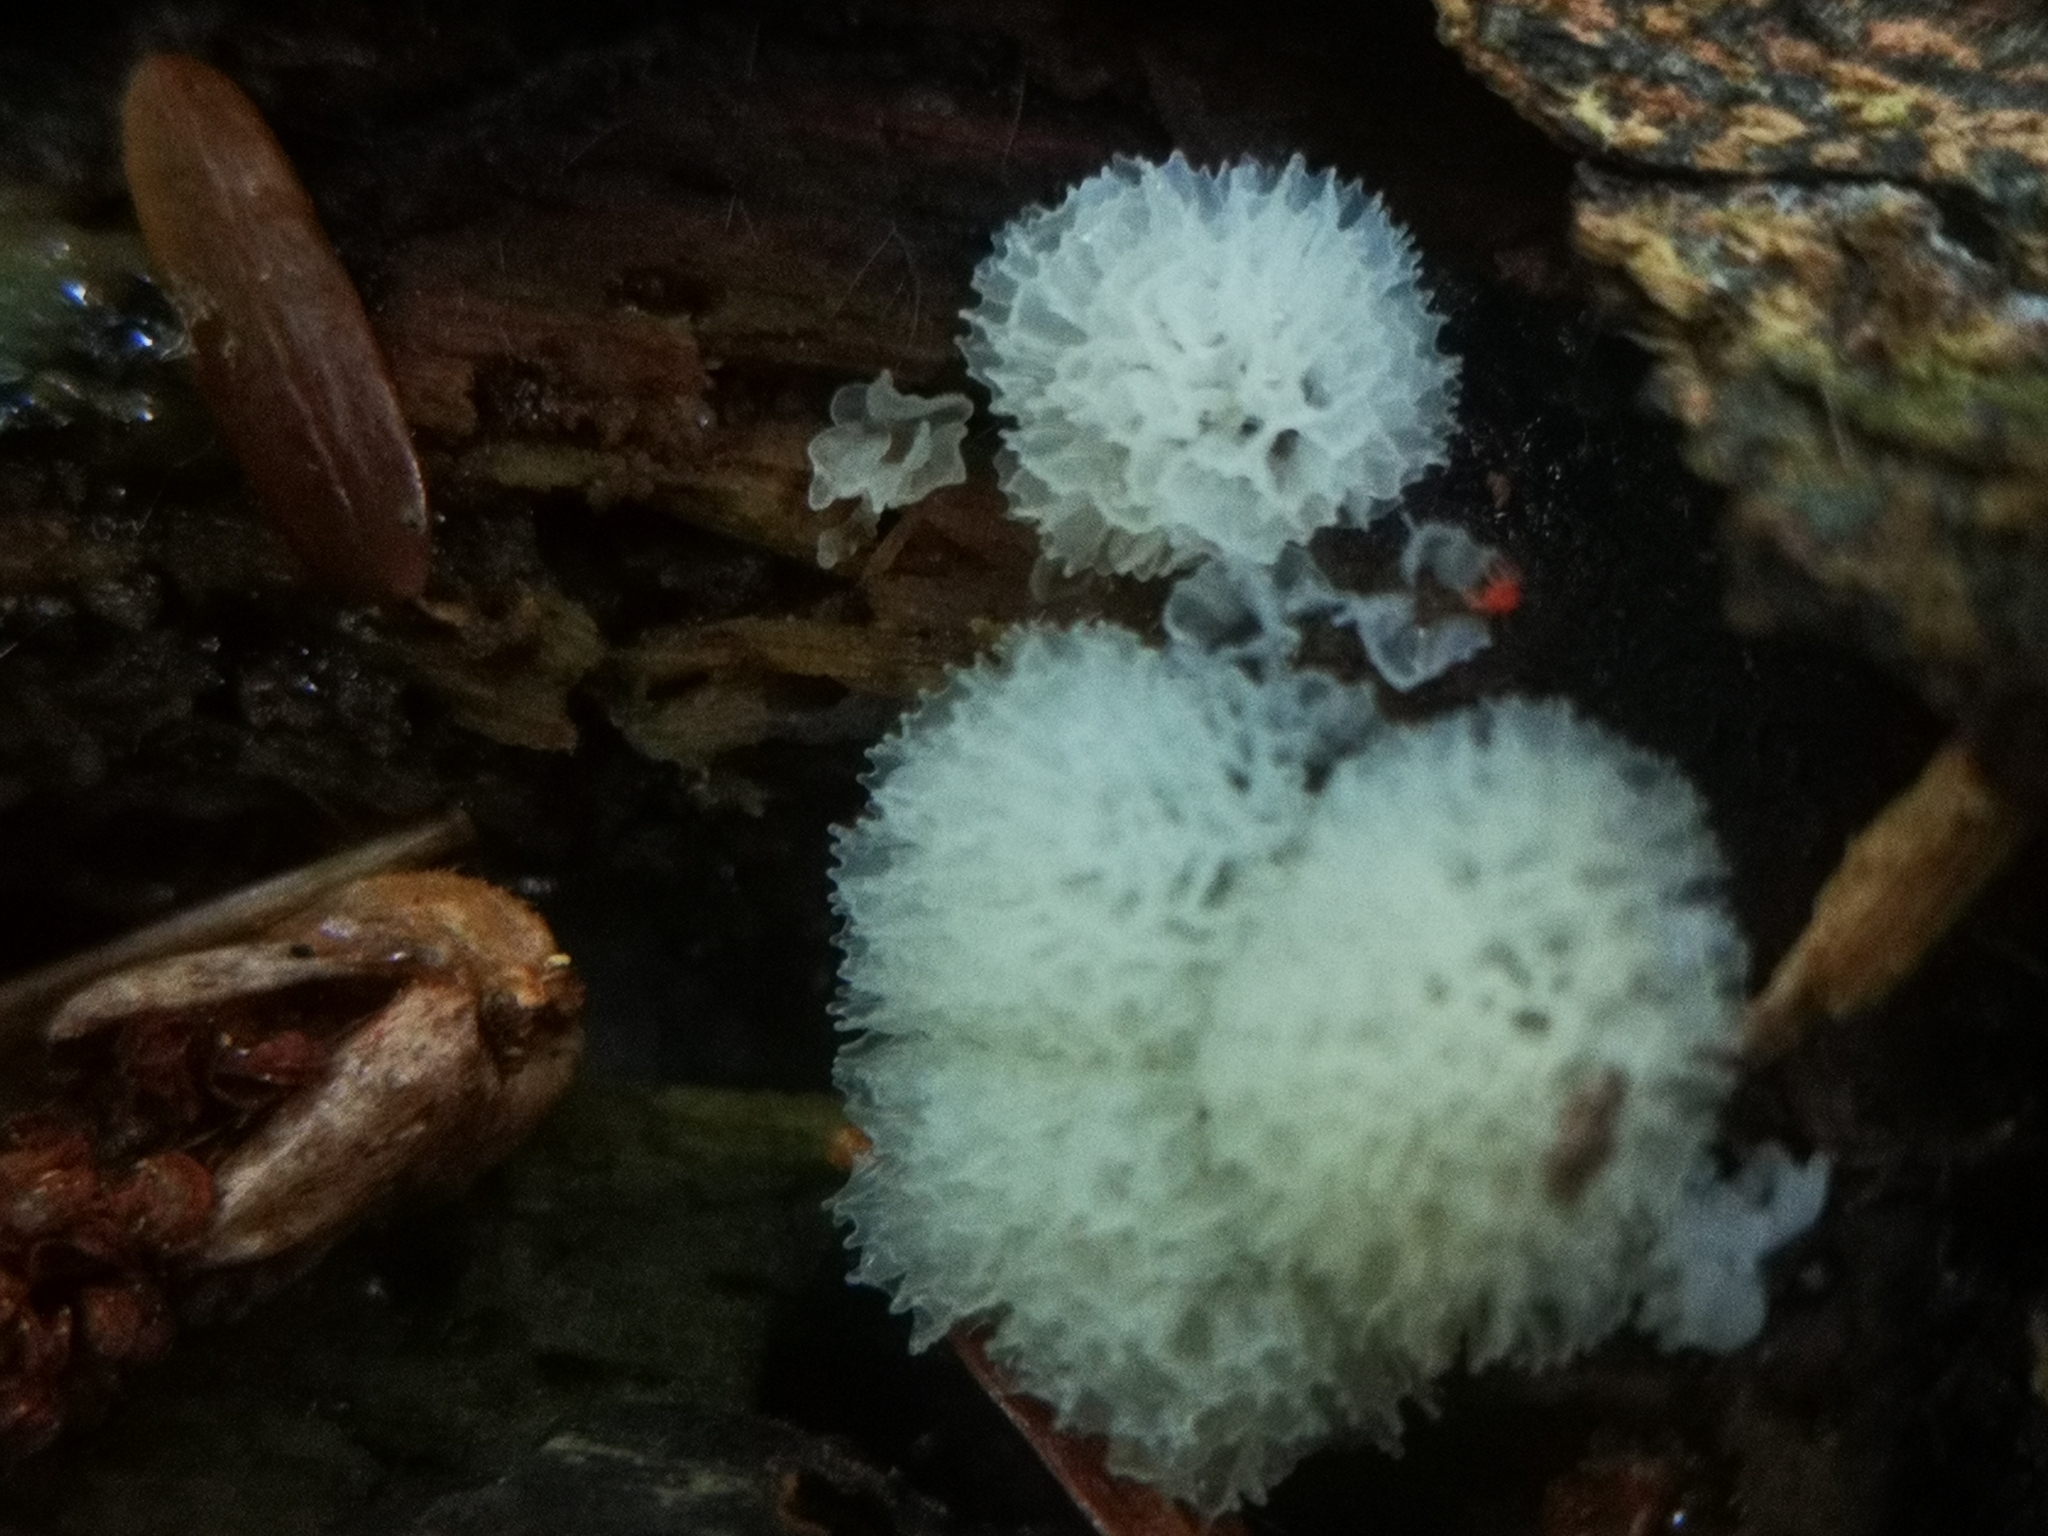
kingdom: Protozoa
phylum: Mycetozoa
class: Protosteliomycetes
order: Ceratiomyxales
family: Ceratiomyxaceae
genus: Ceratiomyxa
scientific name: Ceratiomyxa fruticulosa
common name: Honeycomb coral slime mold
